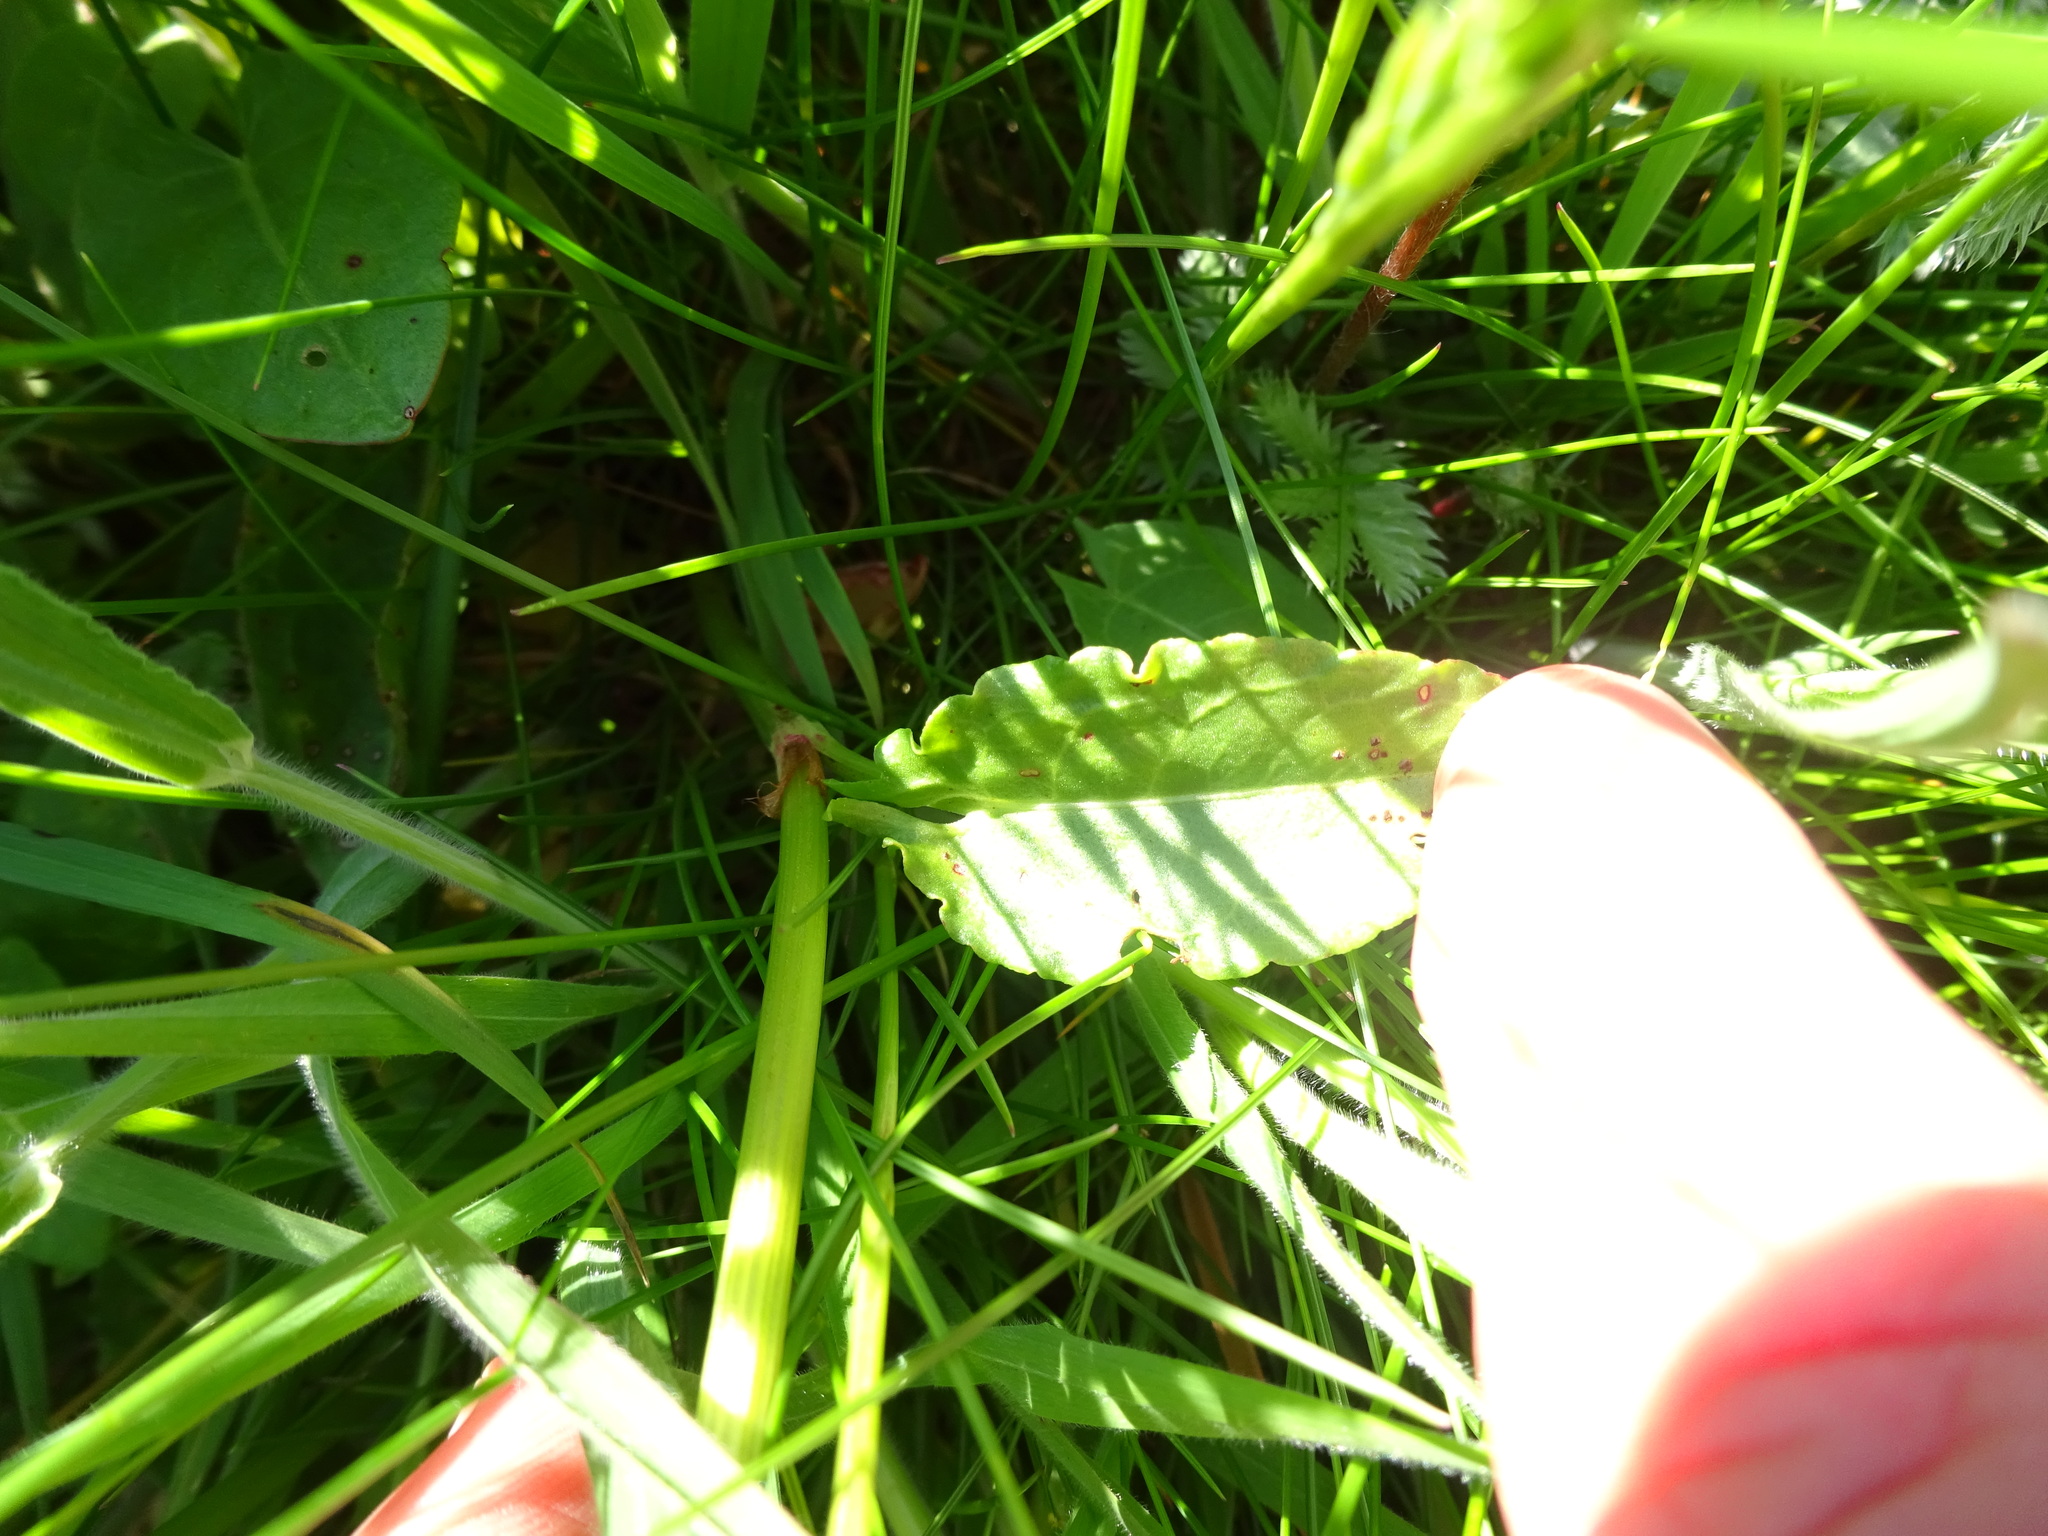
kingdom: Plantae
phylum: Tracheophyta
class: Magnoliopsida
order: Caryophyllales
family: Polygonaceae
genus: Rumex
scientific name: Rumex acetosa
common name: Garden sorrel
